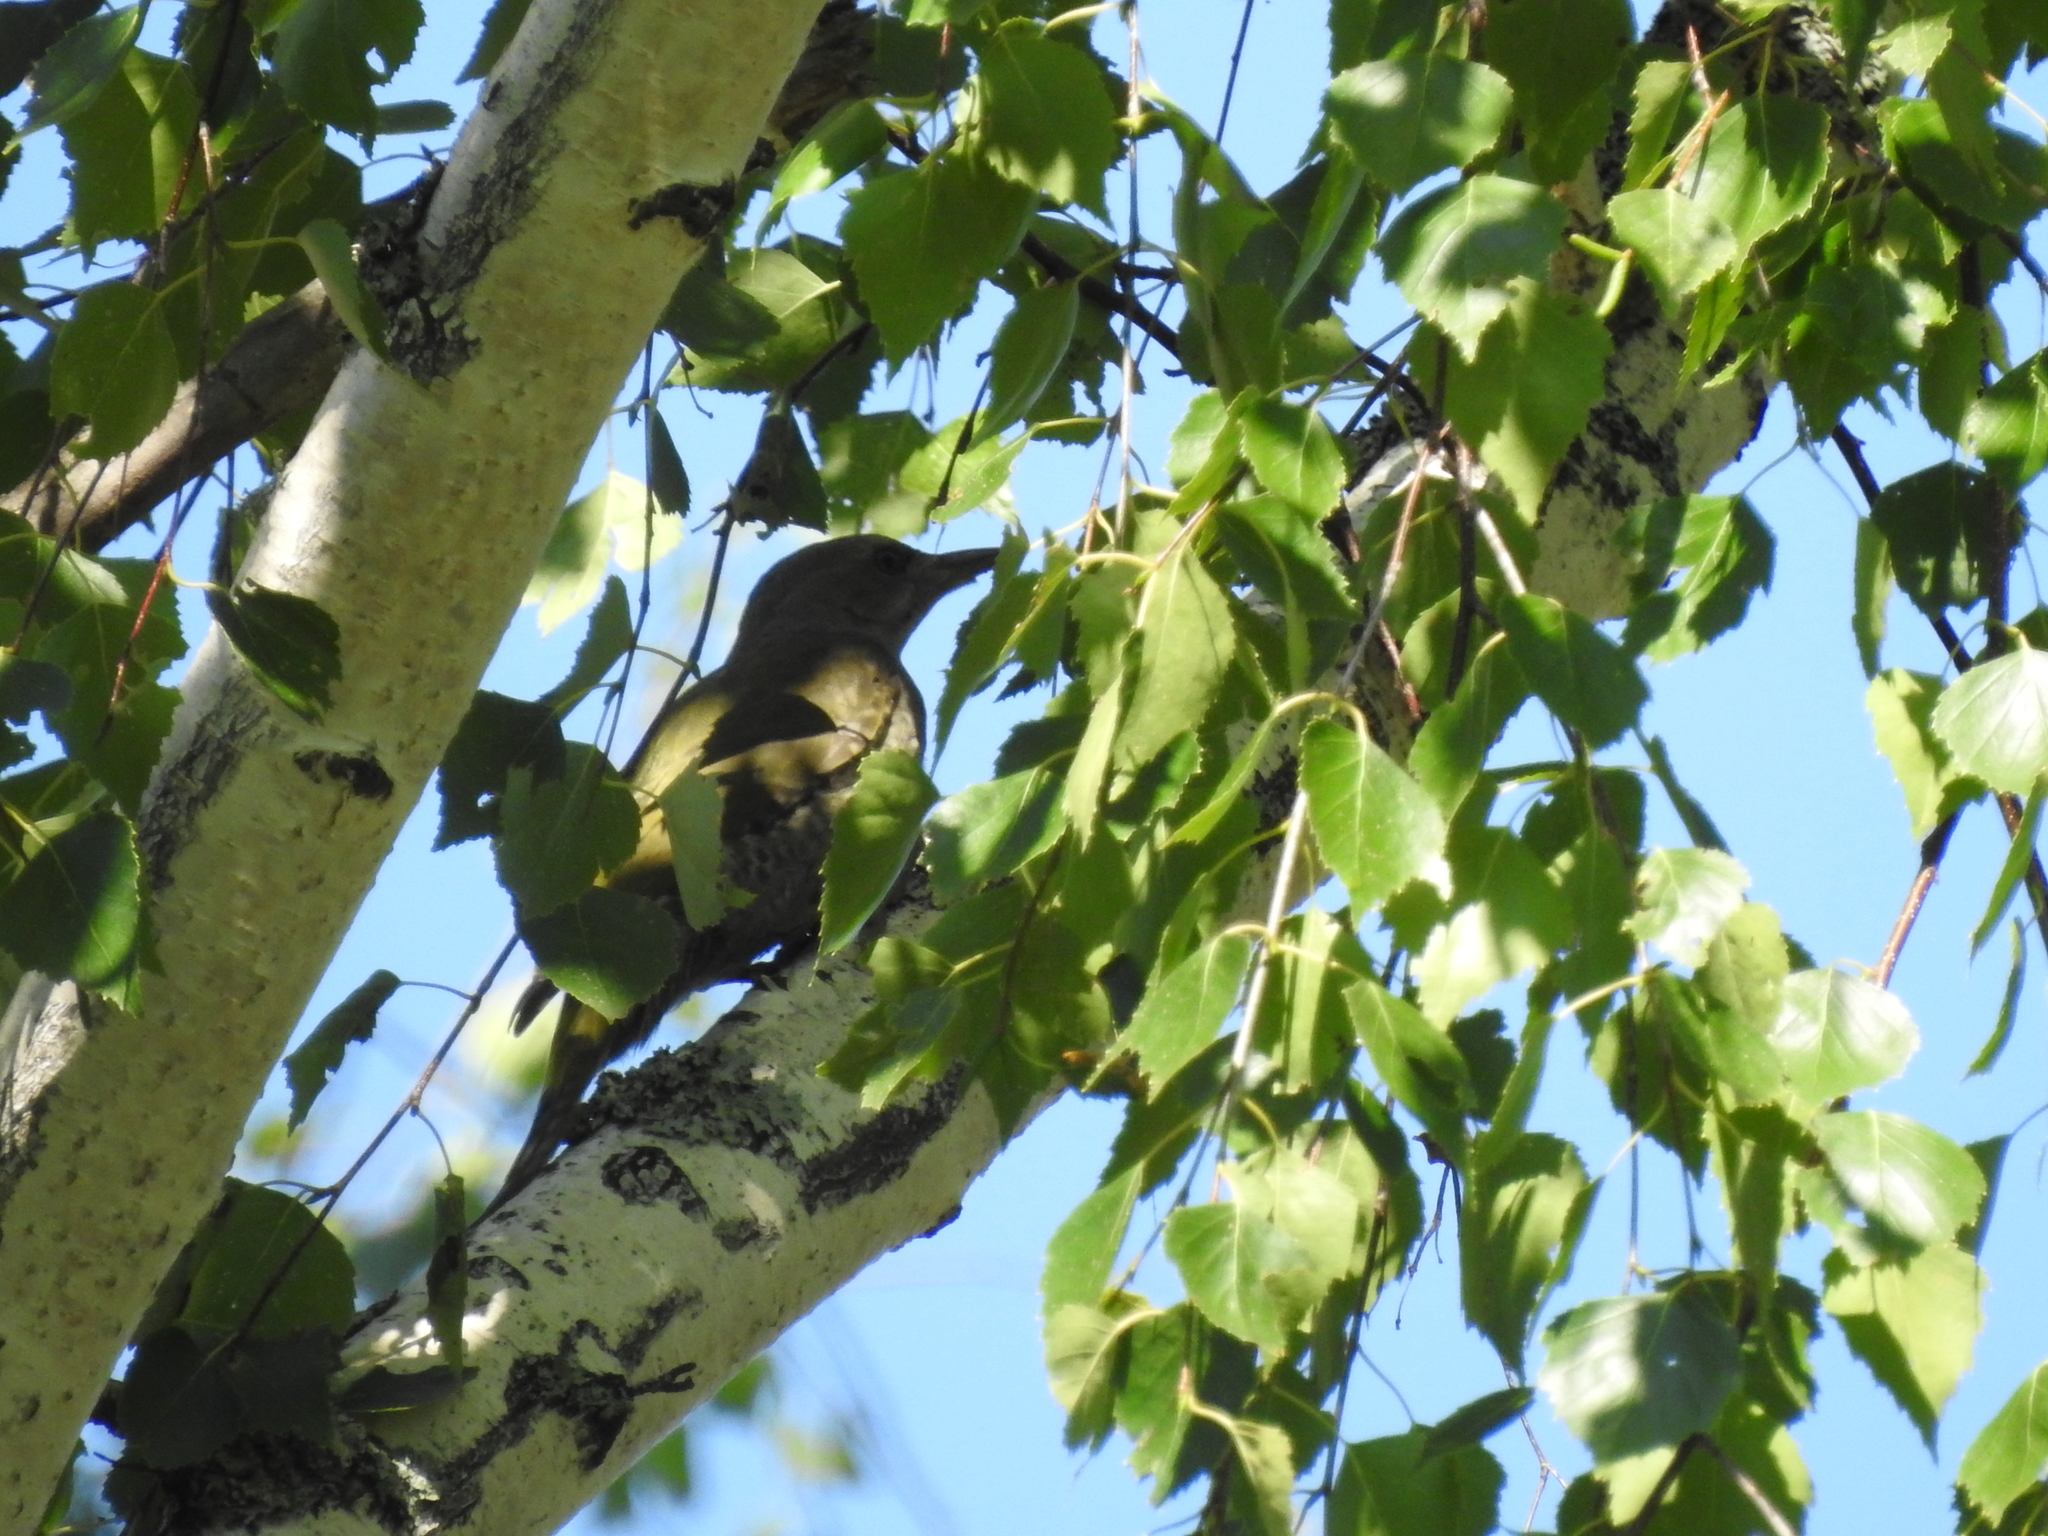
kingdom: Animalia
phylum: Chordata
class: Aves
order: Piciformes
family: Picidae
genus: Picus
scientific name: Picus canus
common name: Grey-headed woodpecker
